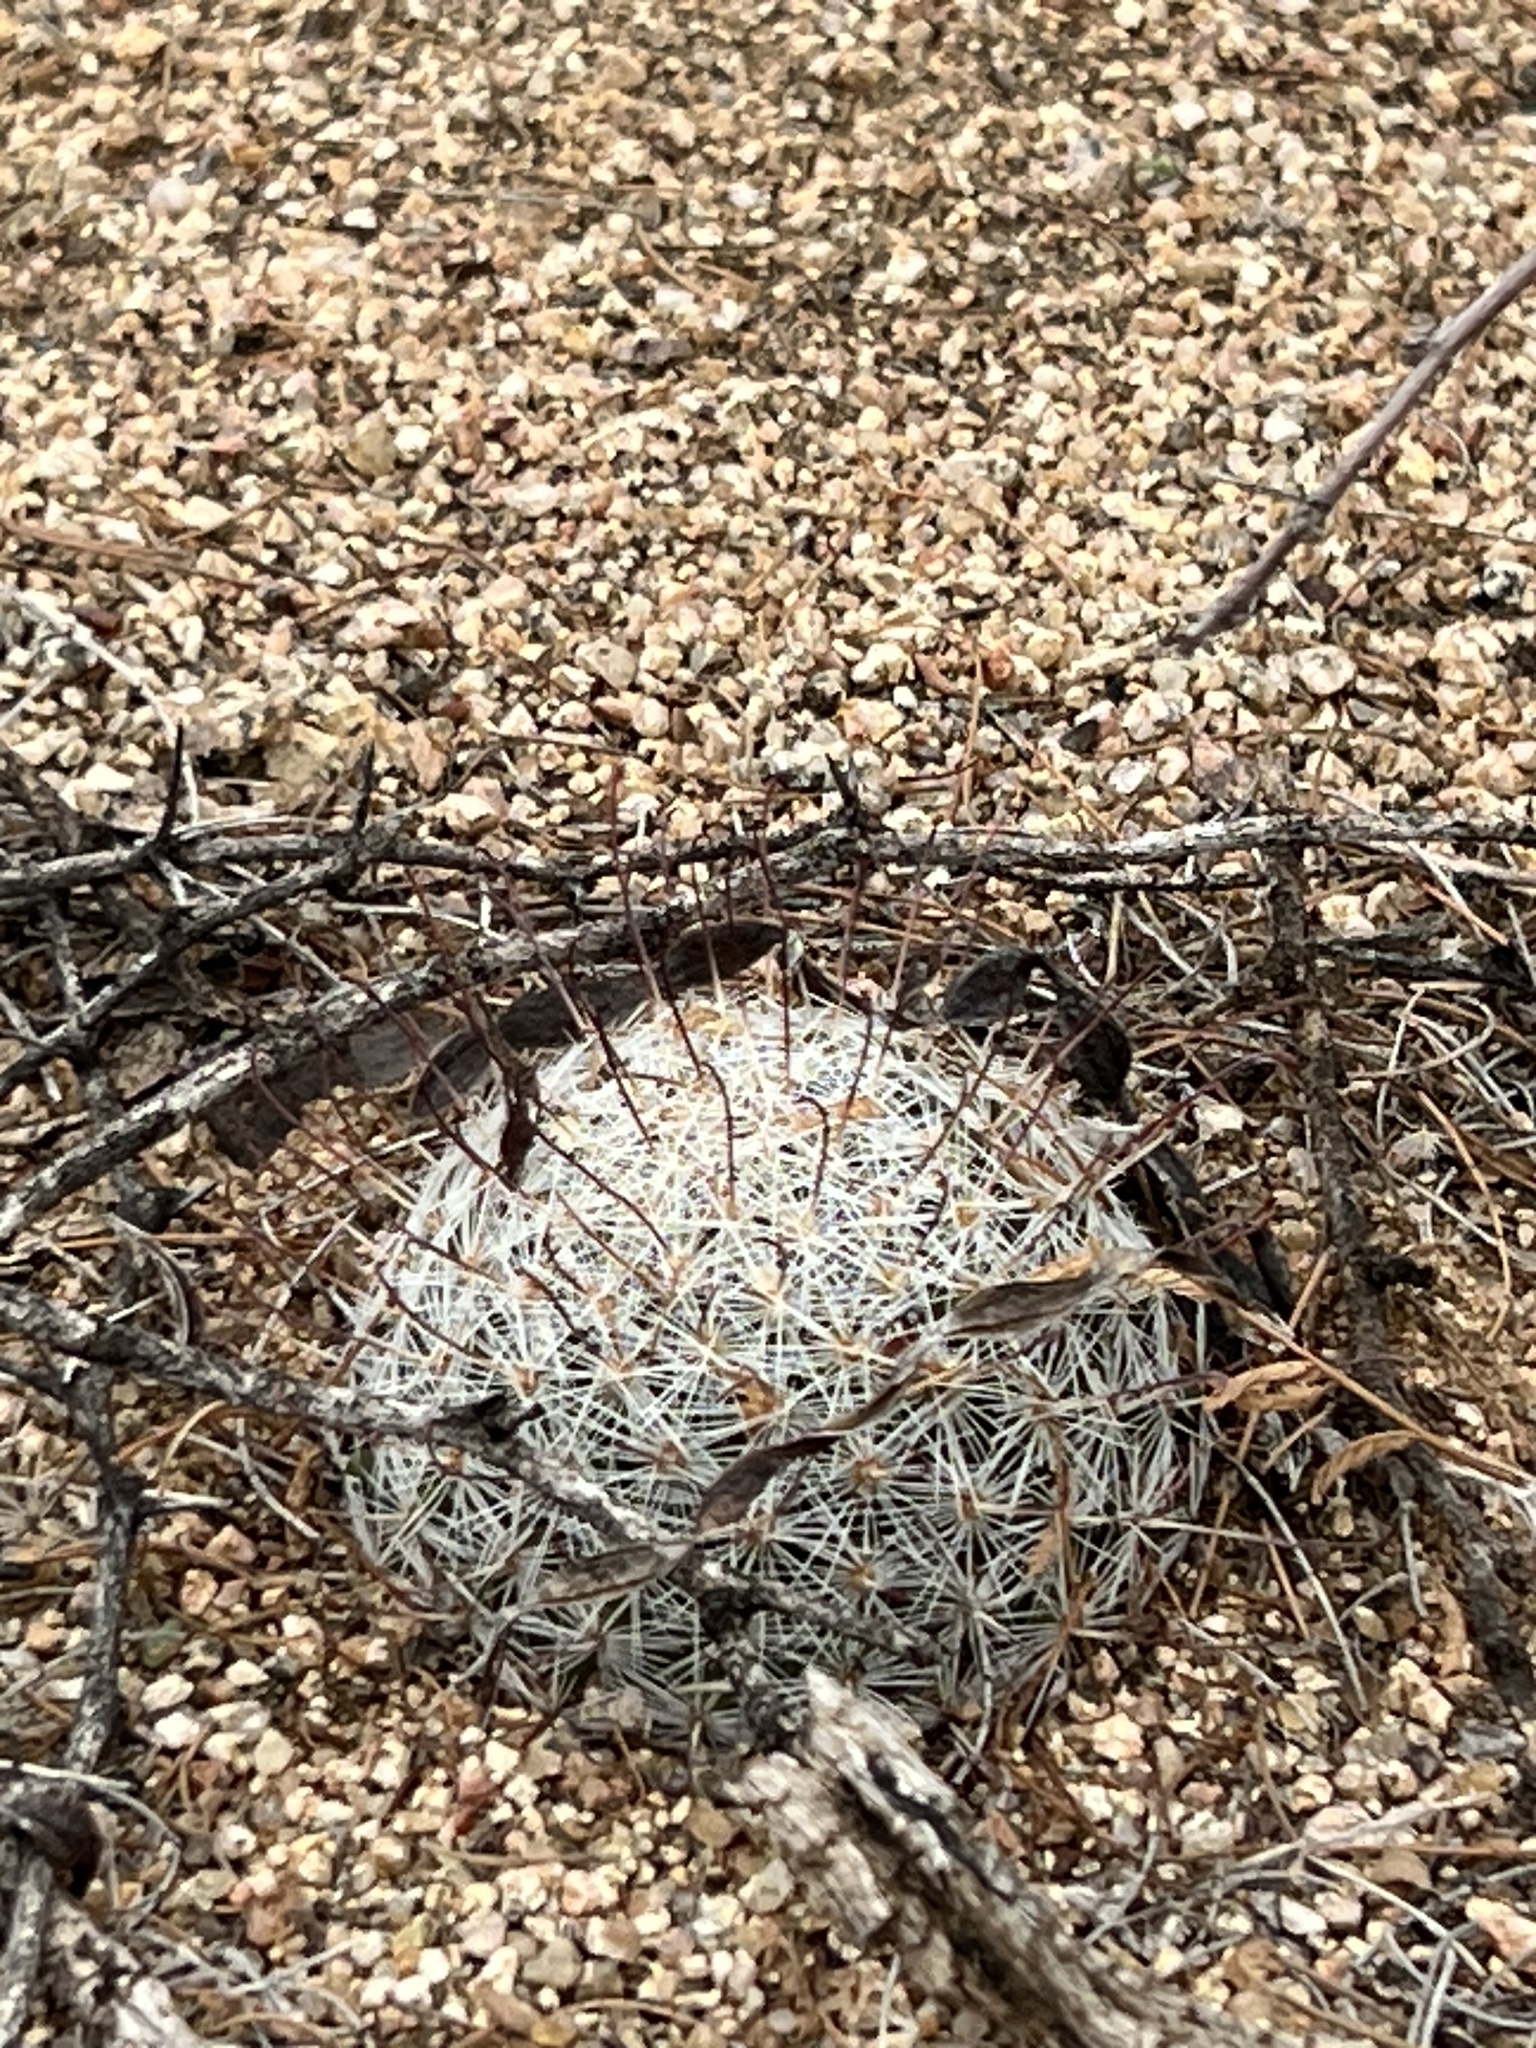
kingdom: Plantae
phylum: Tracheophyta
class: Magnoliopsida
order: Caryophyllales
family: Cactaceae
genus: Cochemiea
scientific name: Cochemiea grahamii
